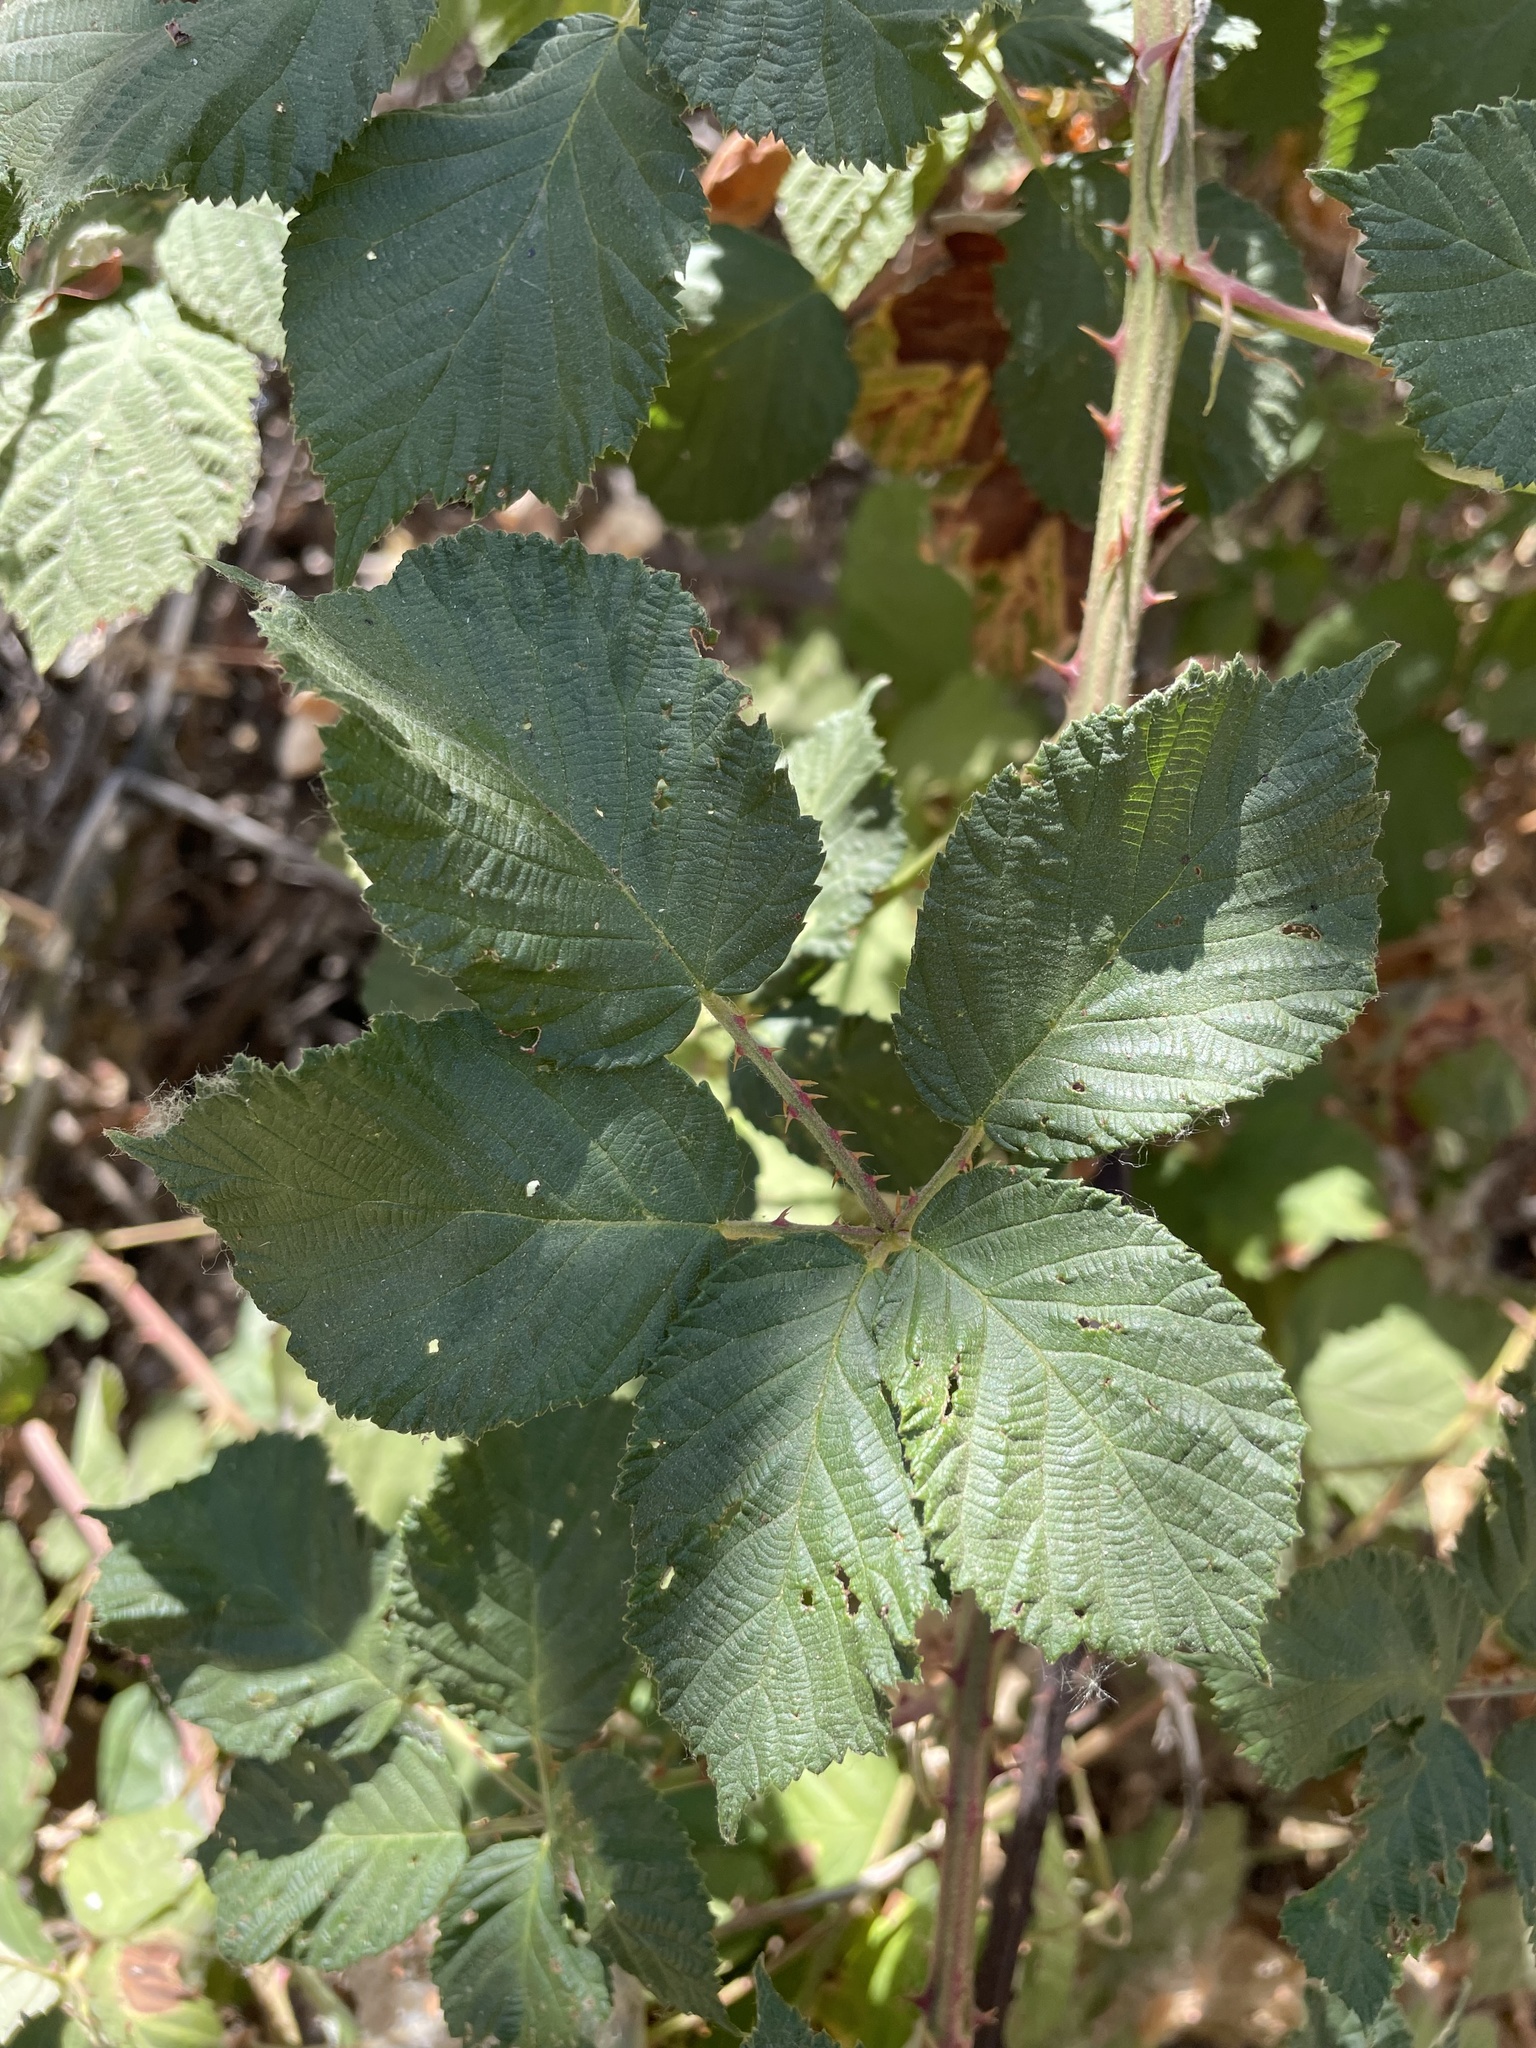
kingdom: Plantae
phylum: Tracheophyta
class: Magnoliopsida
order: Rosales
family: Rosaceae
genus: Rubus
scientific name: Rubus armeniacus
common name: Himalayan blackberry
